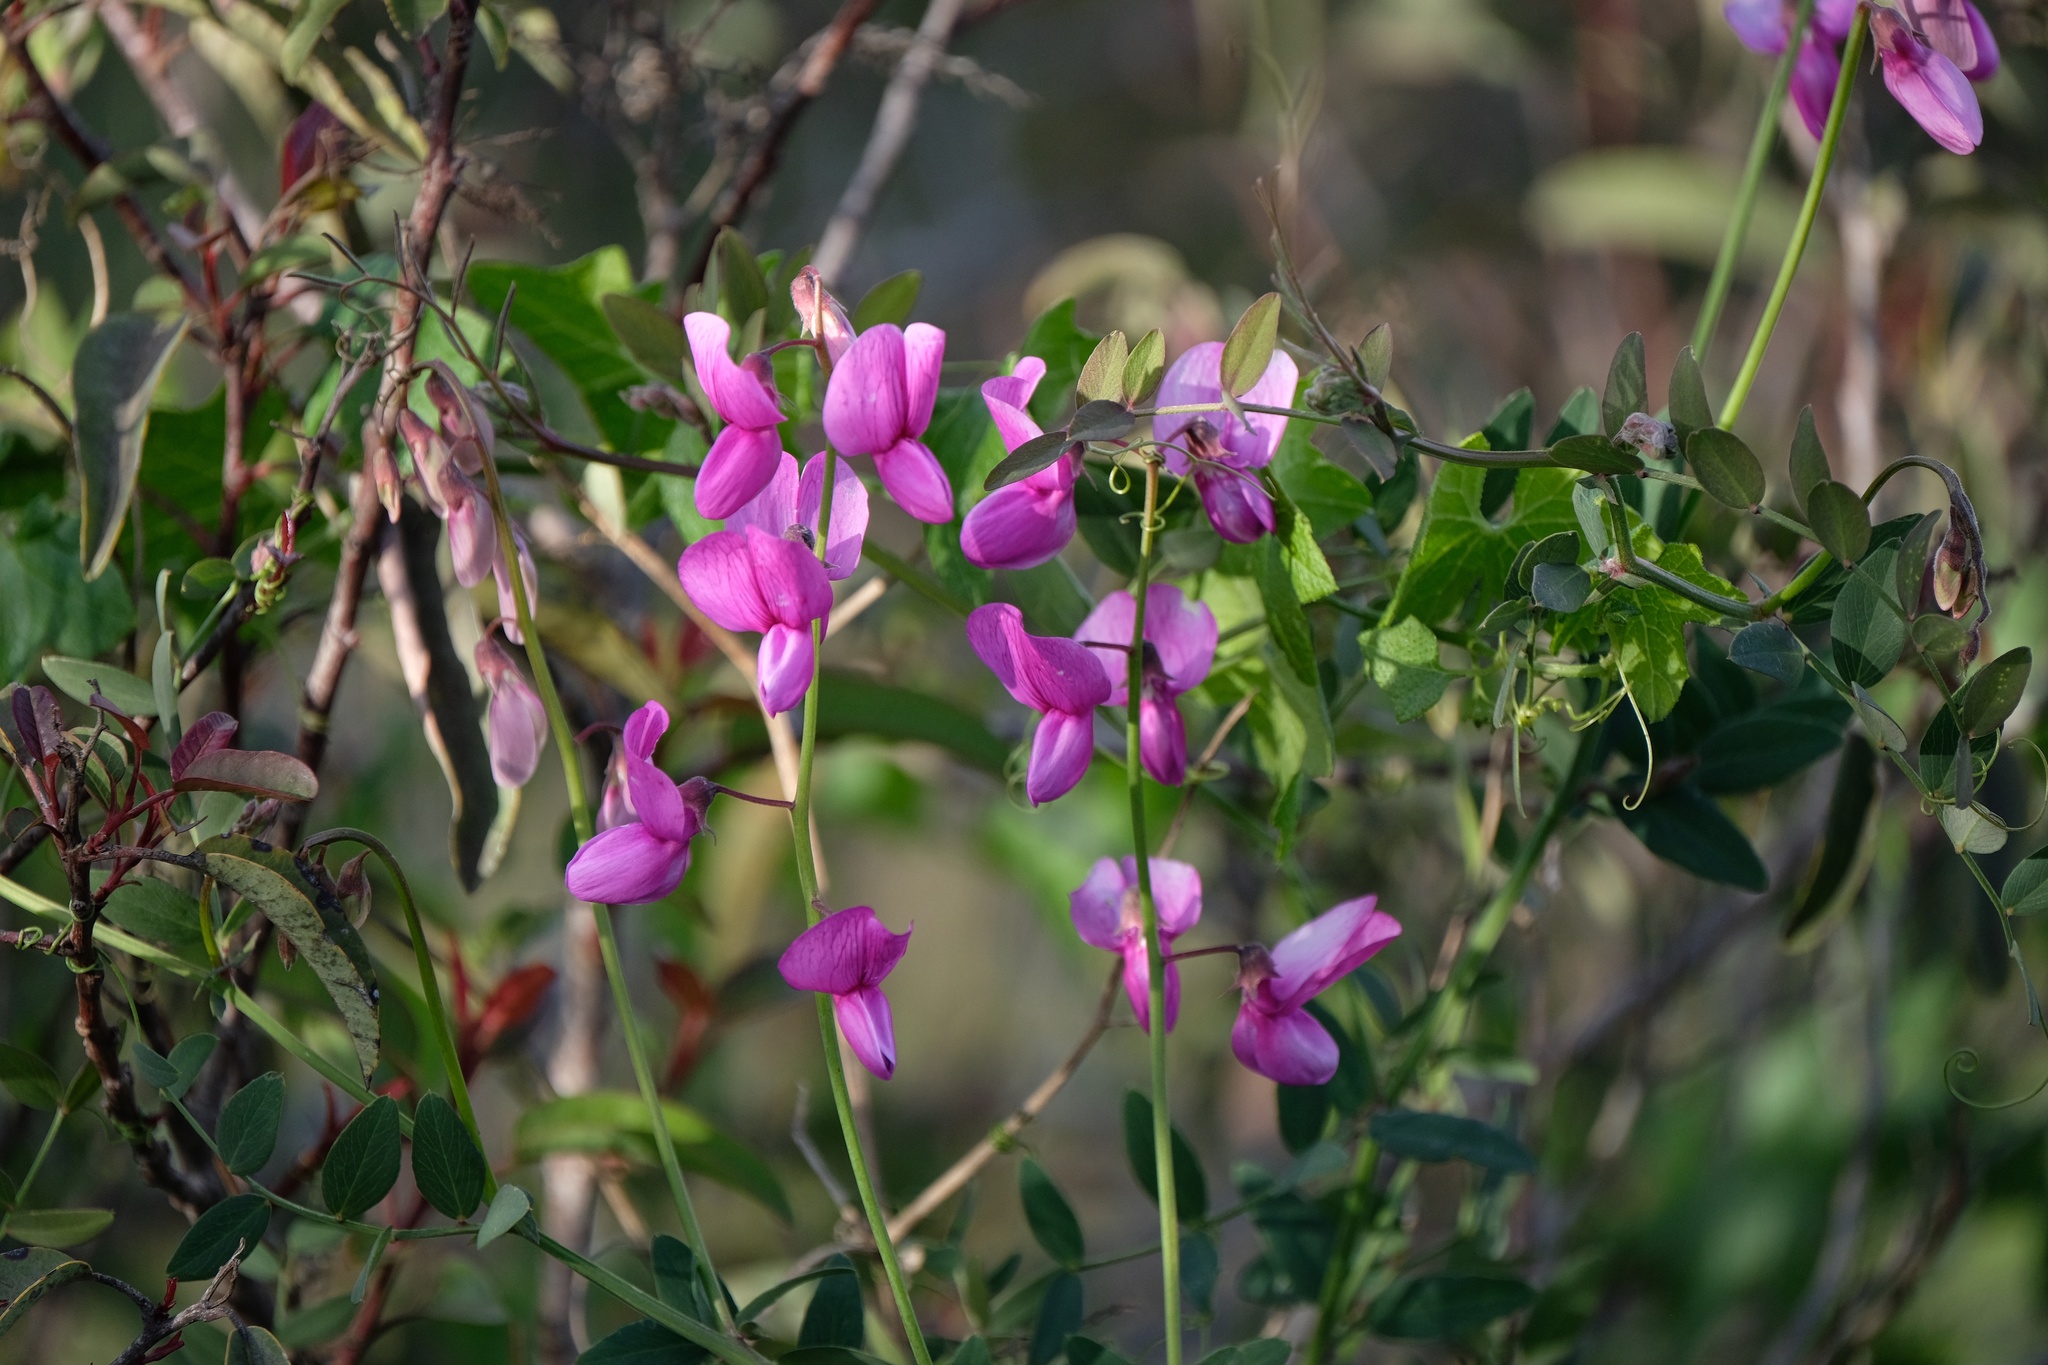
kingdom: Plantae
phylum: Tracheophyta
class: Magnoliopsida
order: Fabales
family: Fabaceae
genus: Lathyrus
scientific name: Lathyrus vestitus
